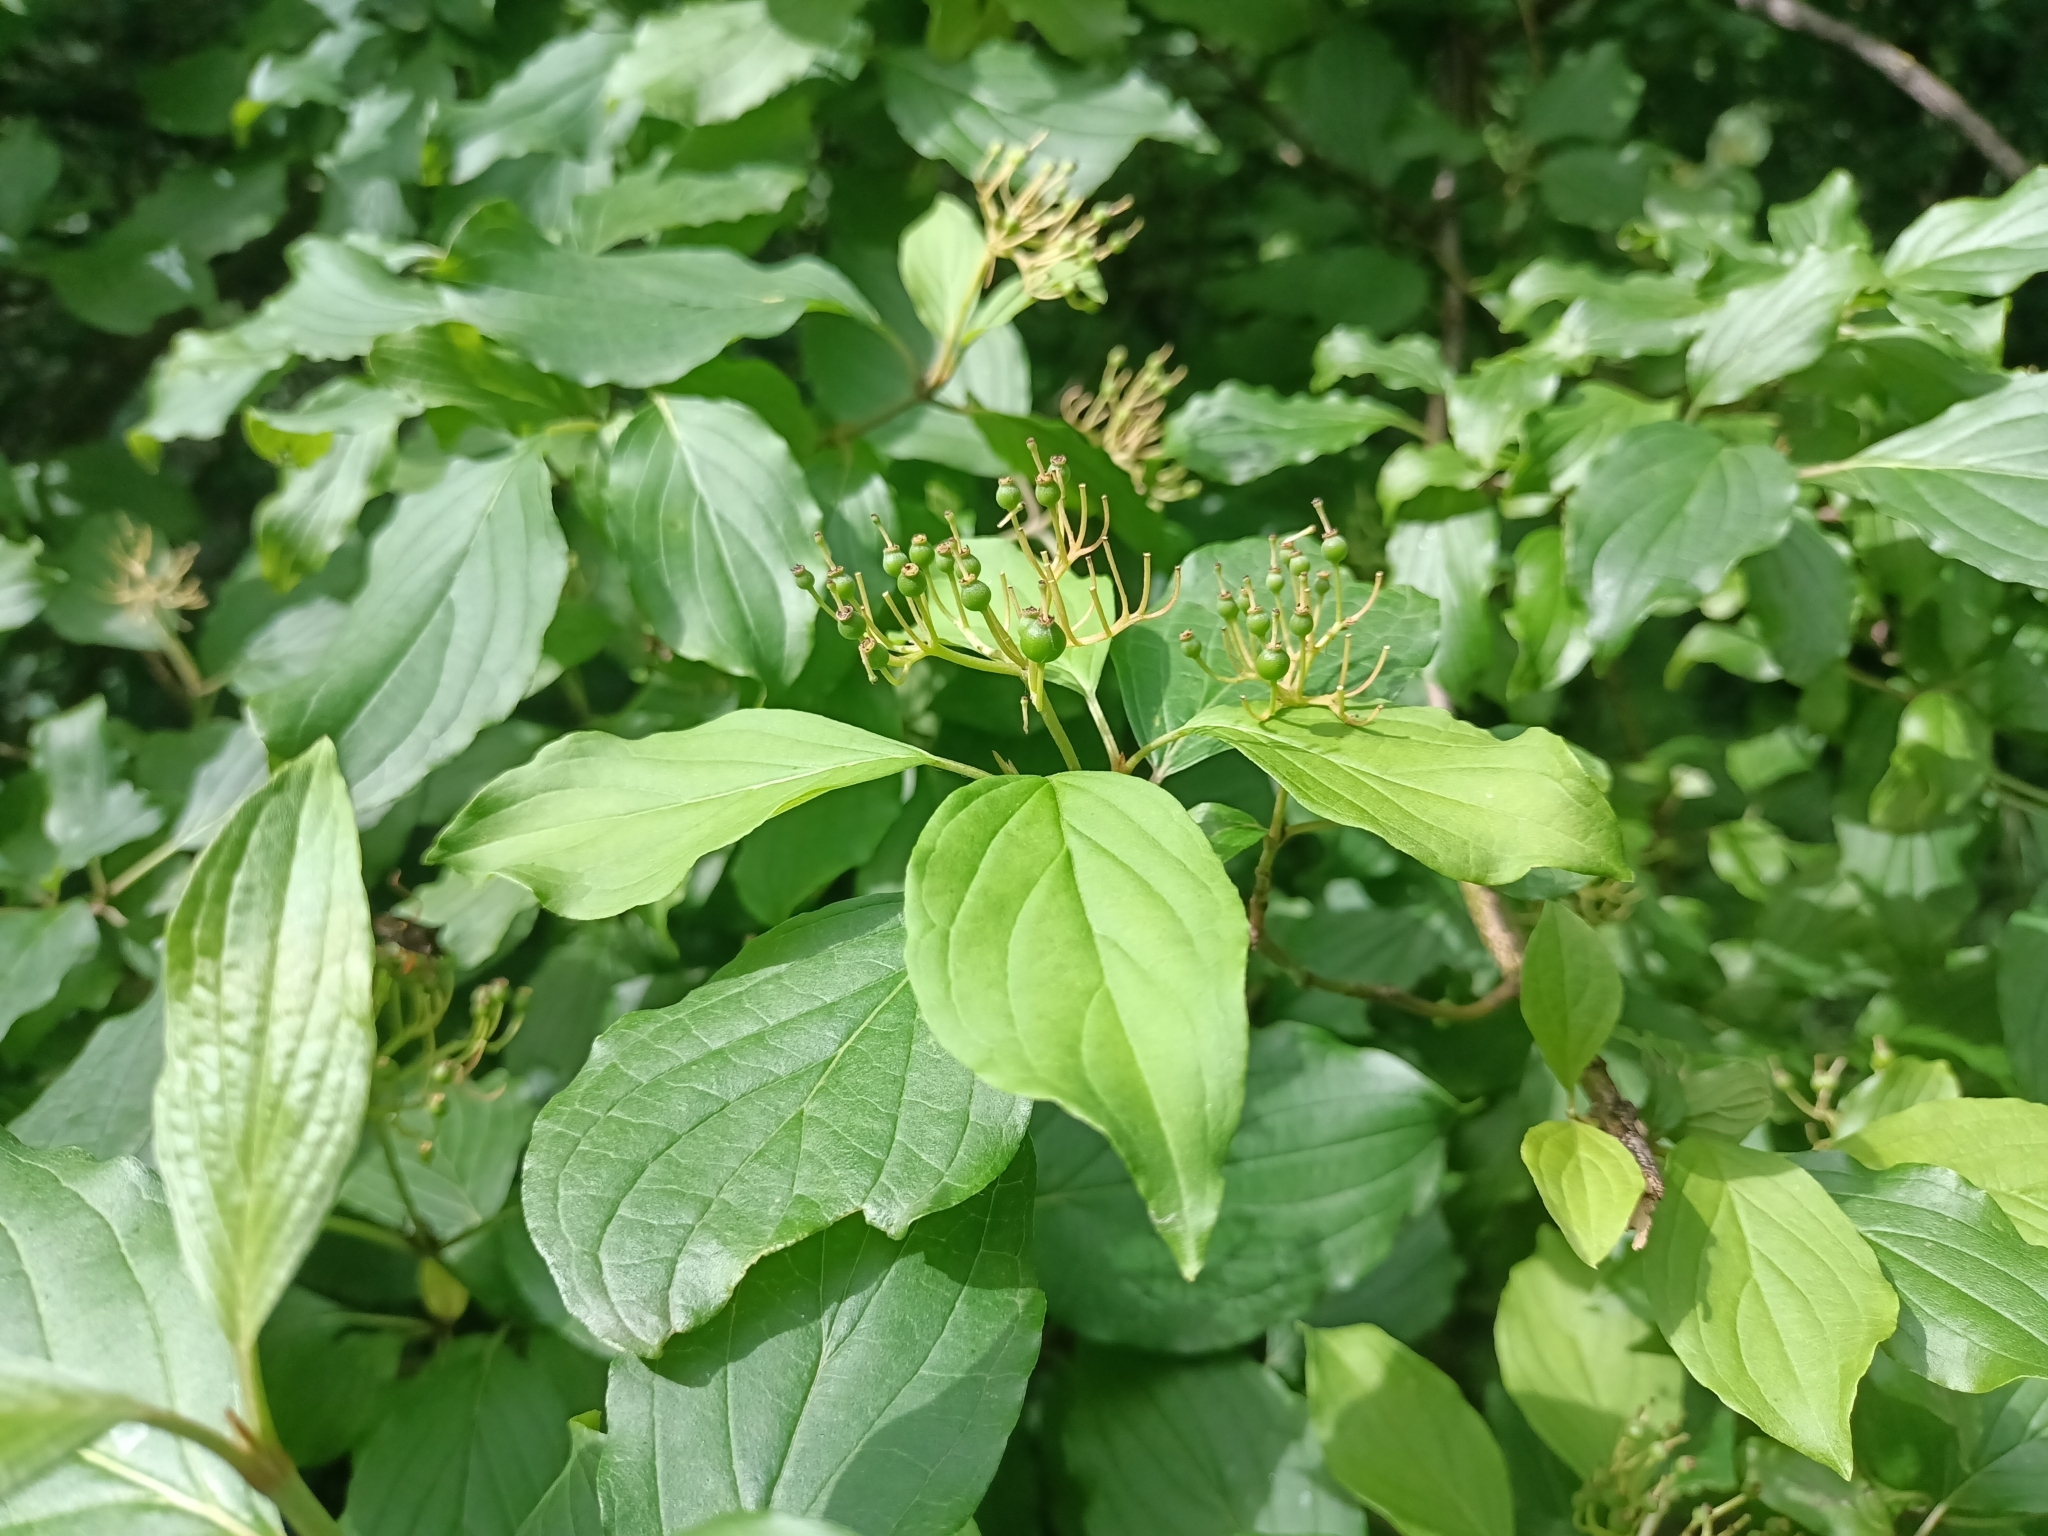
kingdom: Plantae
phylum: Tracheophyta
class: Magnoliopsida
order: Cornales
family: Cornaceae
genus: Cornus
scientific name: Cornus sanguinea
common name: Dogwood
